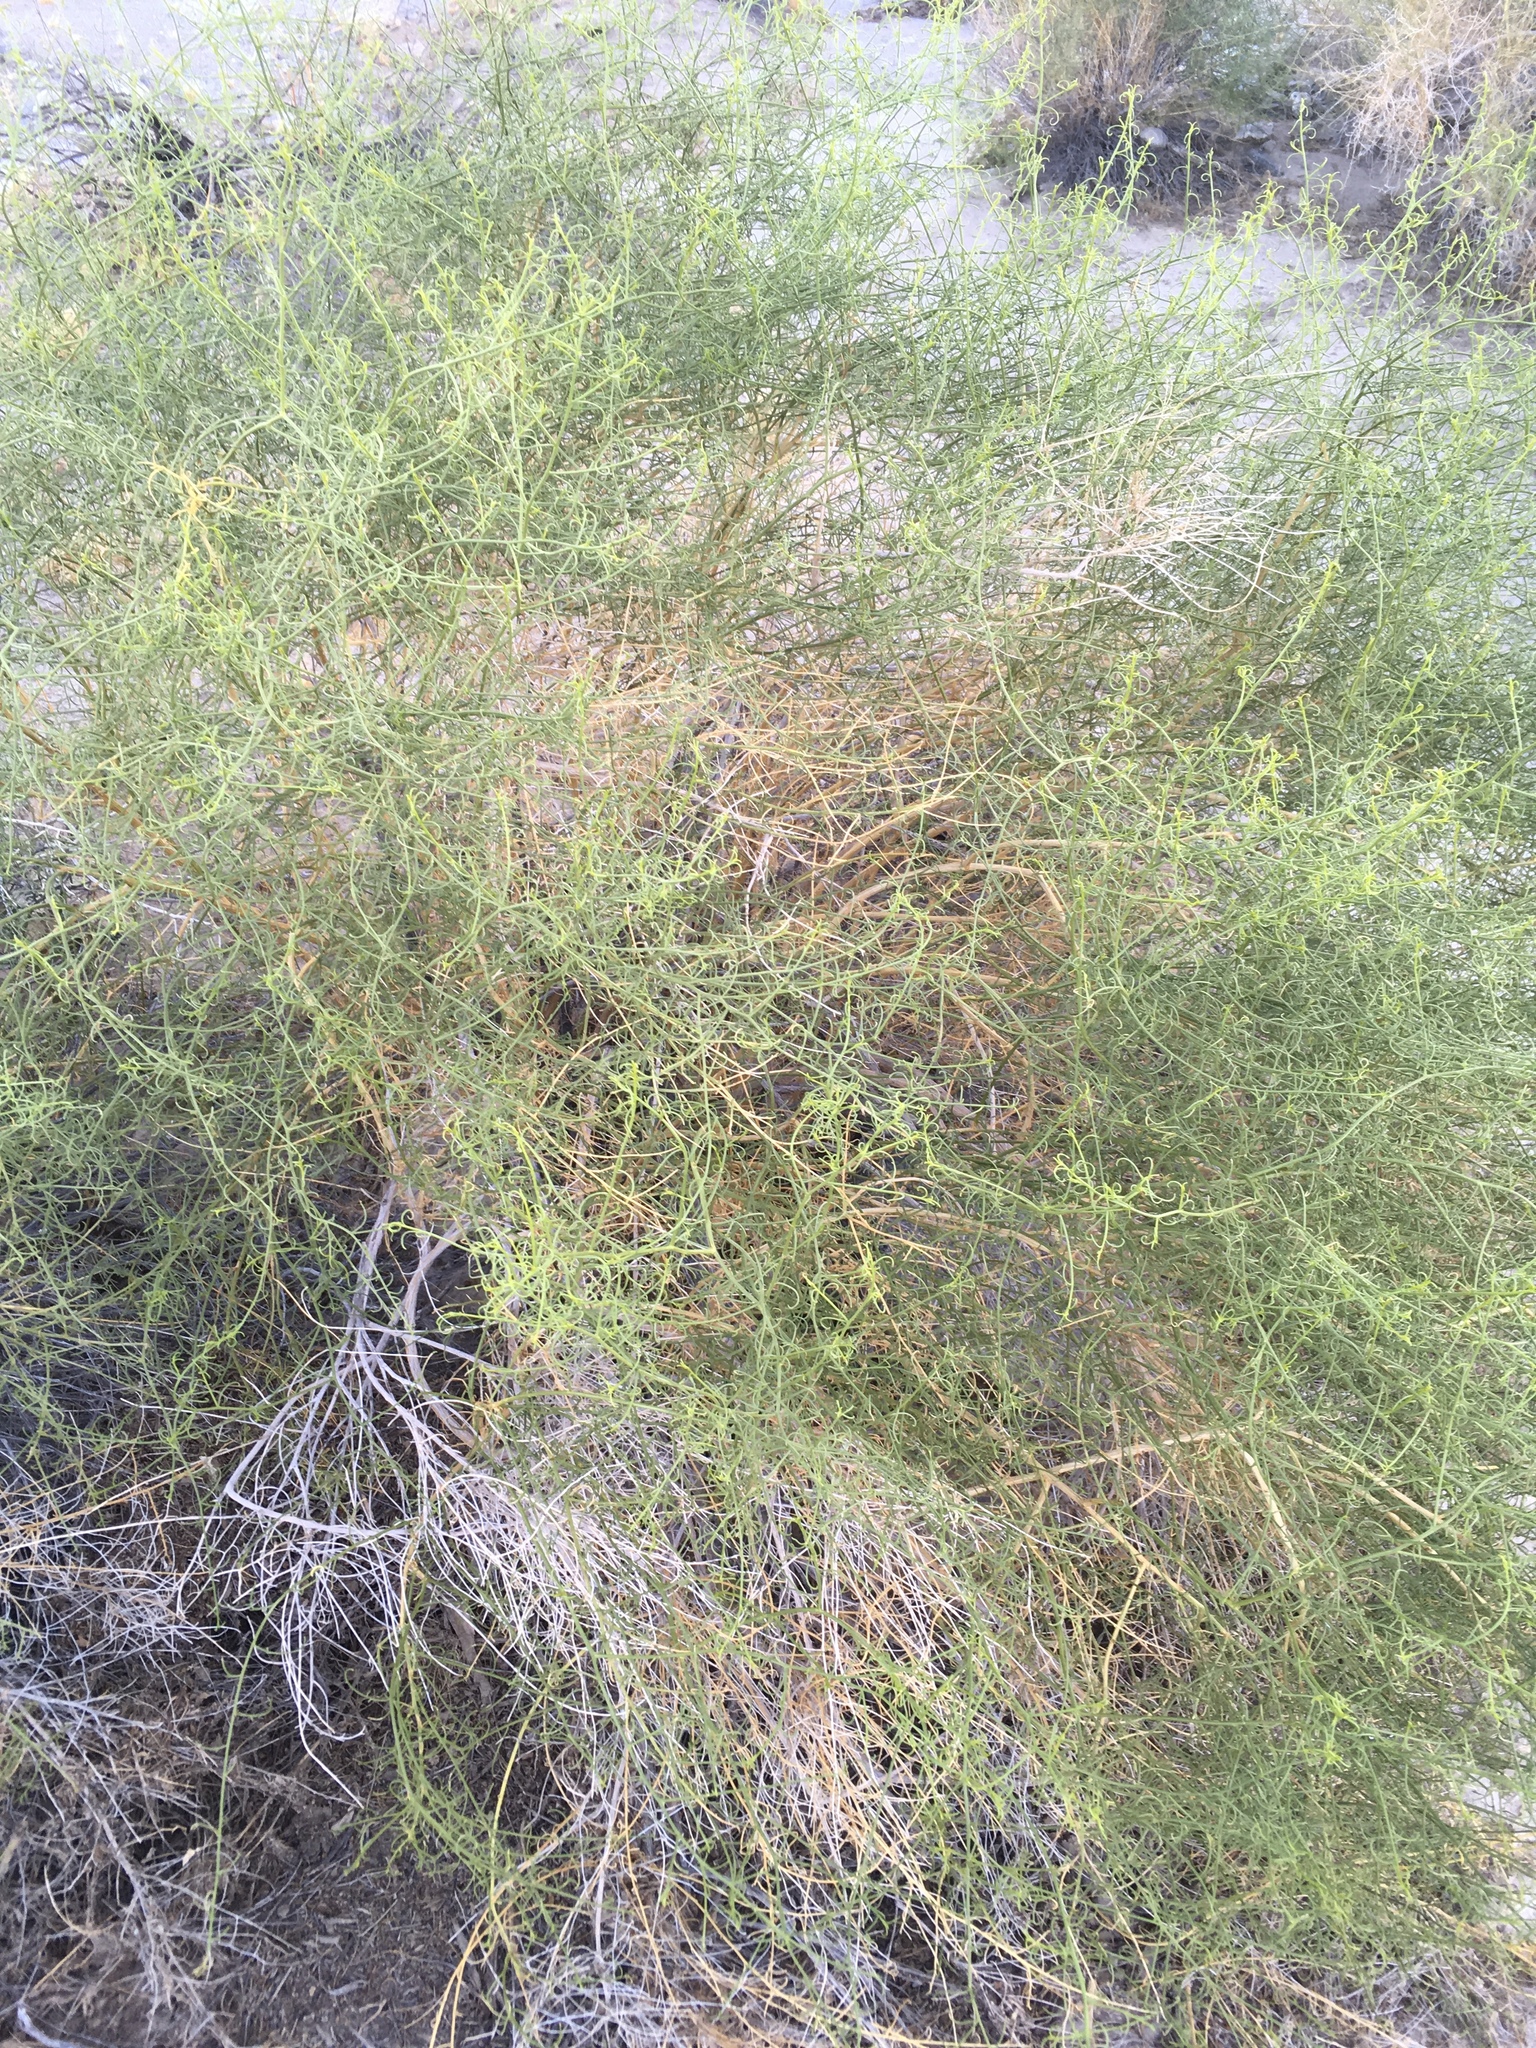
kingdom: Plantae
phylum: Tracheophyta
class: Magnoliopsida
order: Asterales
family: Asteraceae
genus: Ambrosia
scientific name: Ambrosia salsola
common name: Burrobrush
